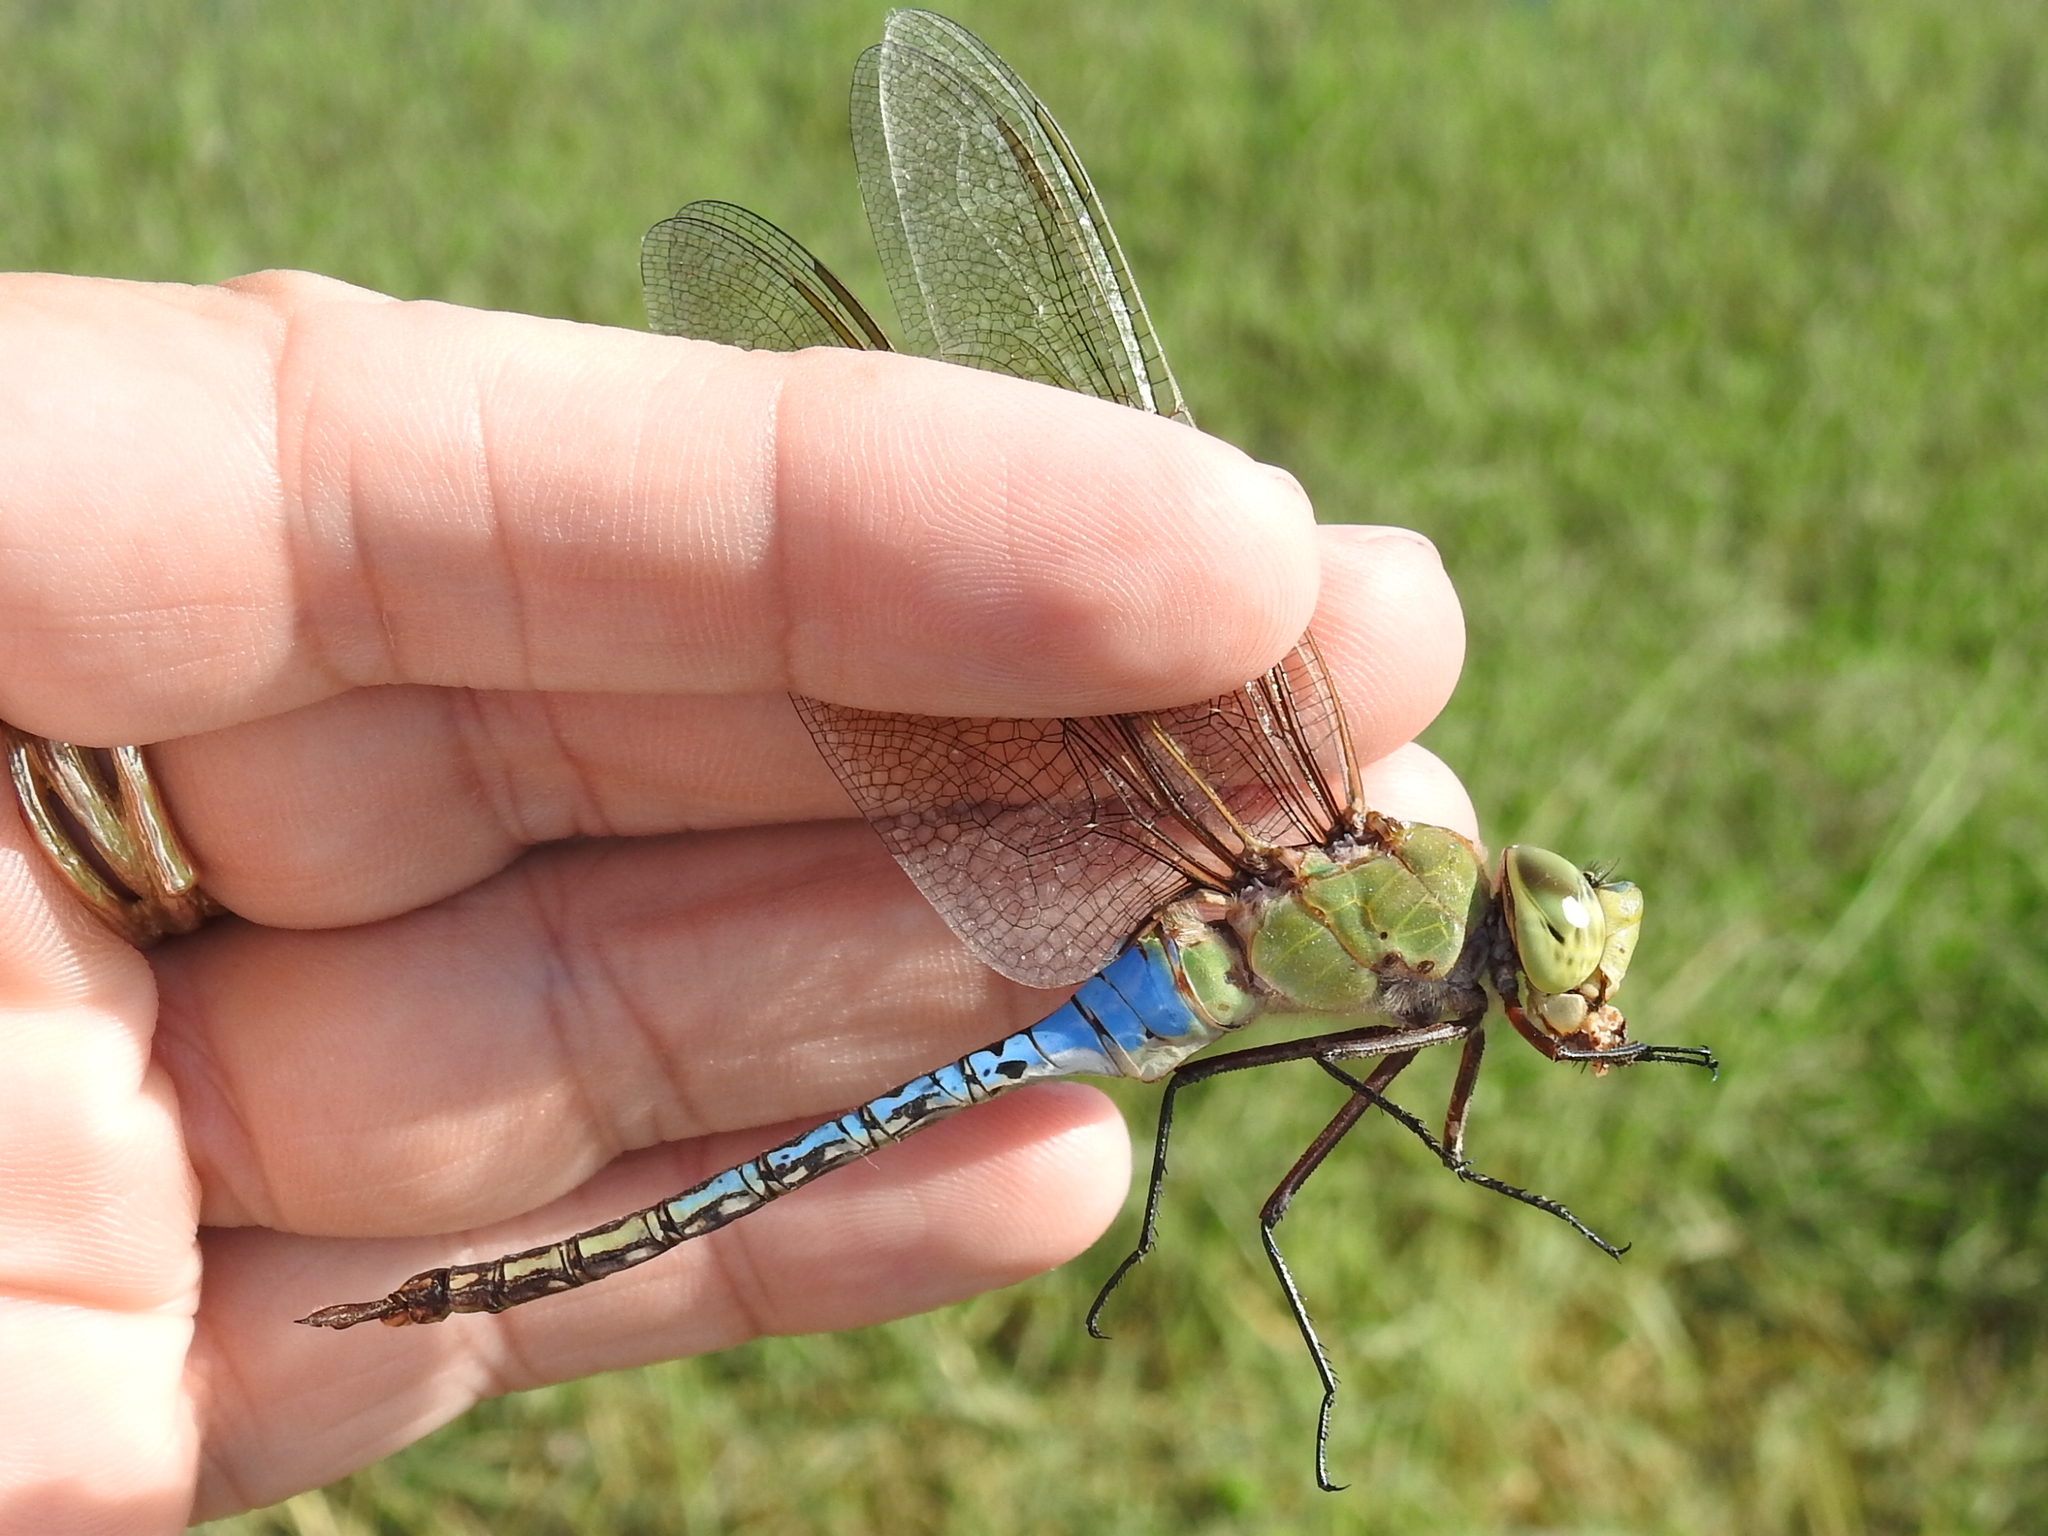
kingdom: Animalia
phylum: Arthropoda
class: Insecta
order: Odonata
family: Aeshnidae
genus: Anax
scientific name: Anax junius
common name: Common green darner
